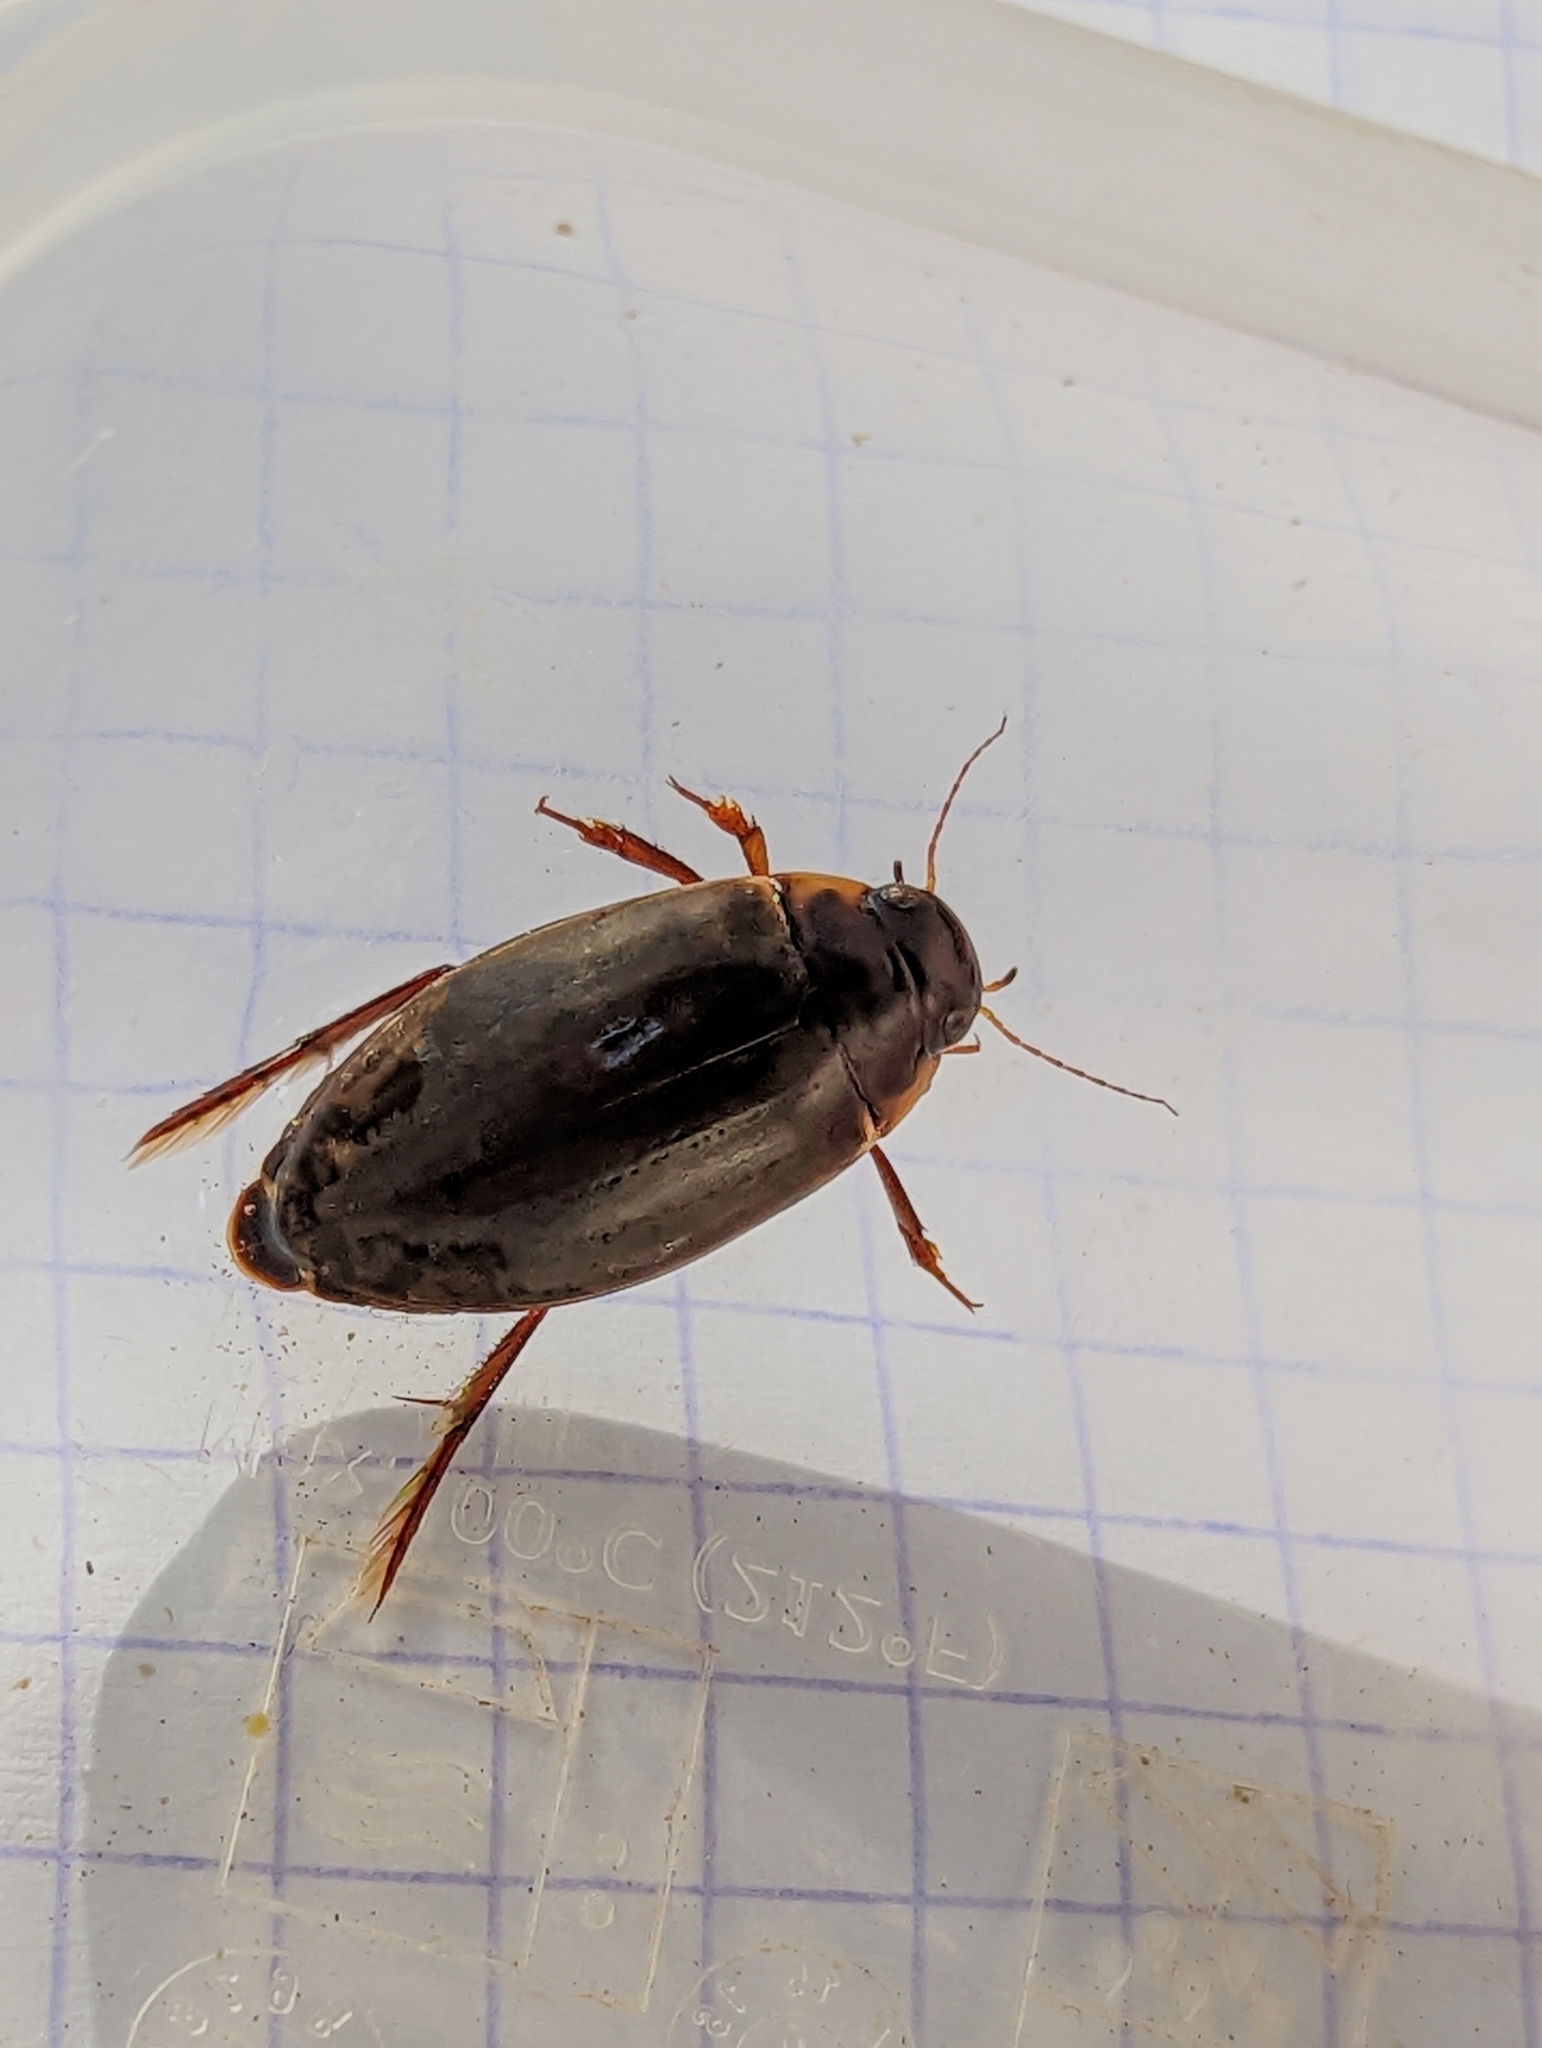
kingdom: Animalia
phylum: Arthropoda
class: Insecta
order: Coleoptera
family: Dytiscidae
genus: Colymbetes
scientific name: Colymbetes fuscus
